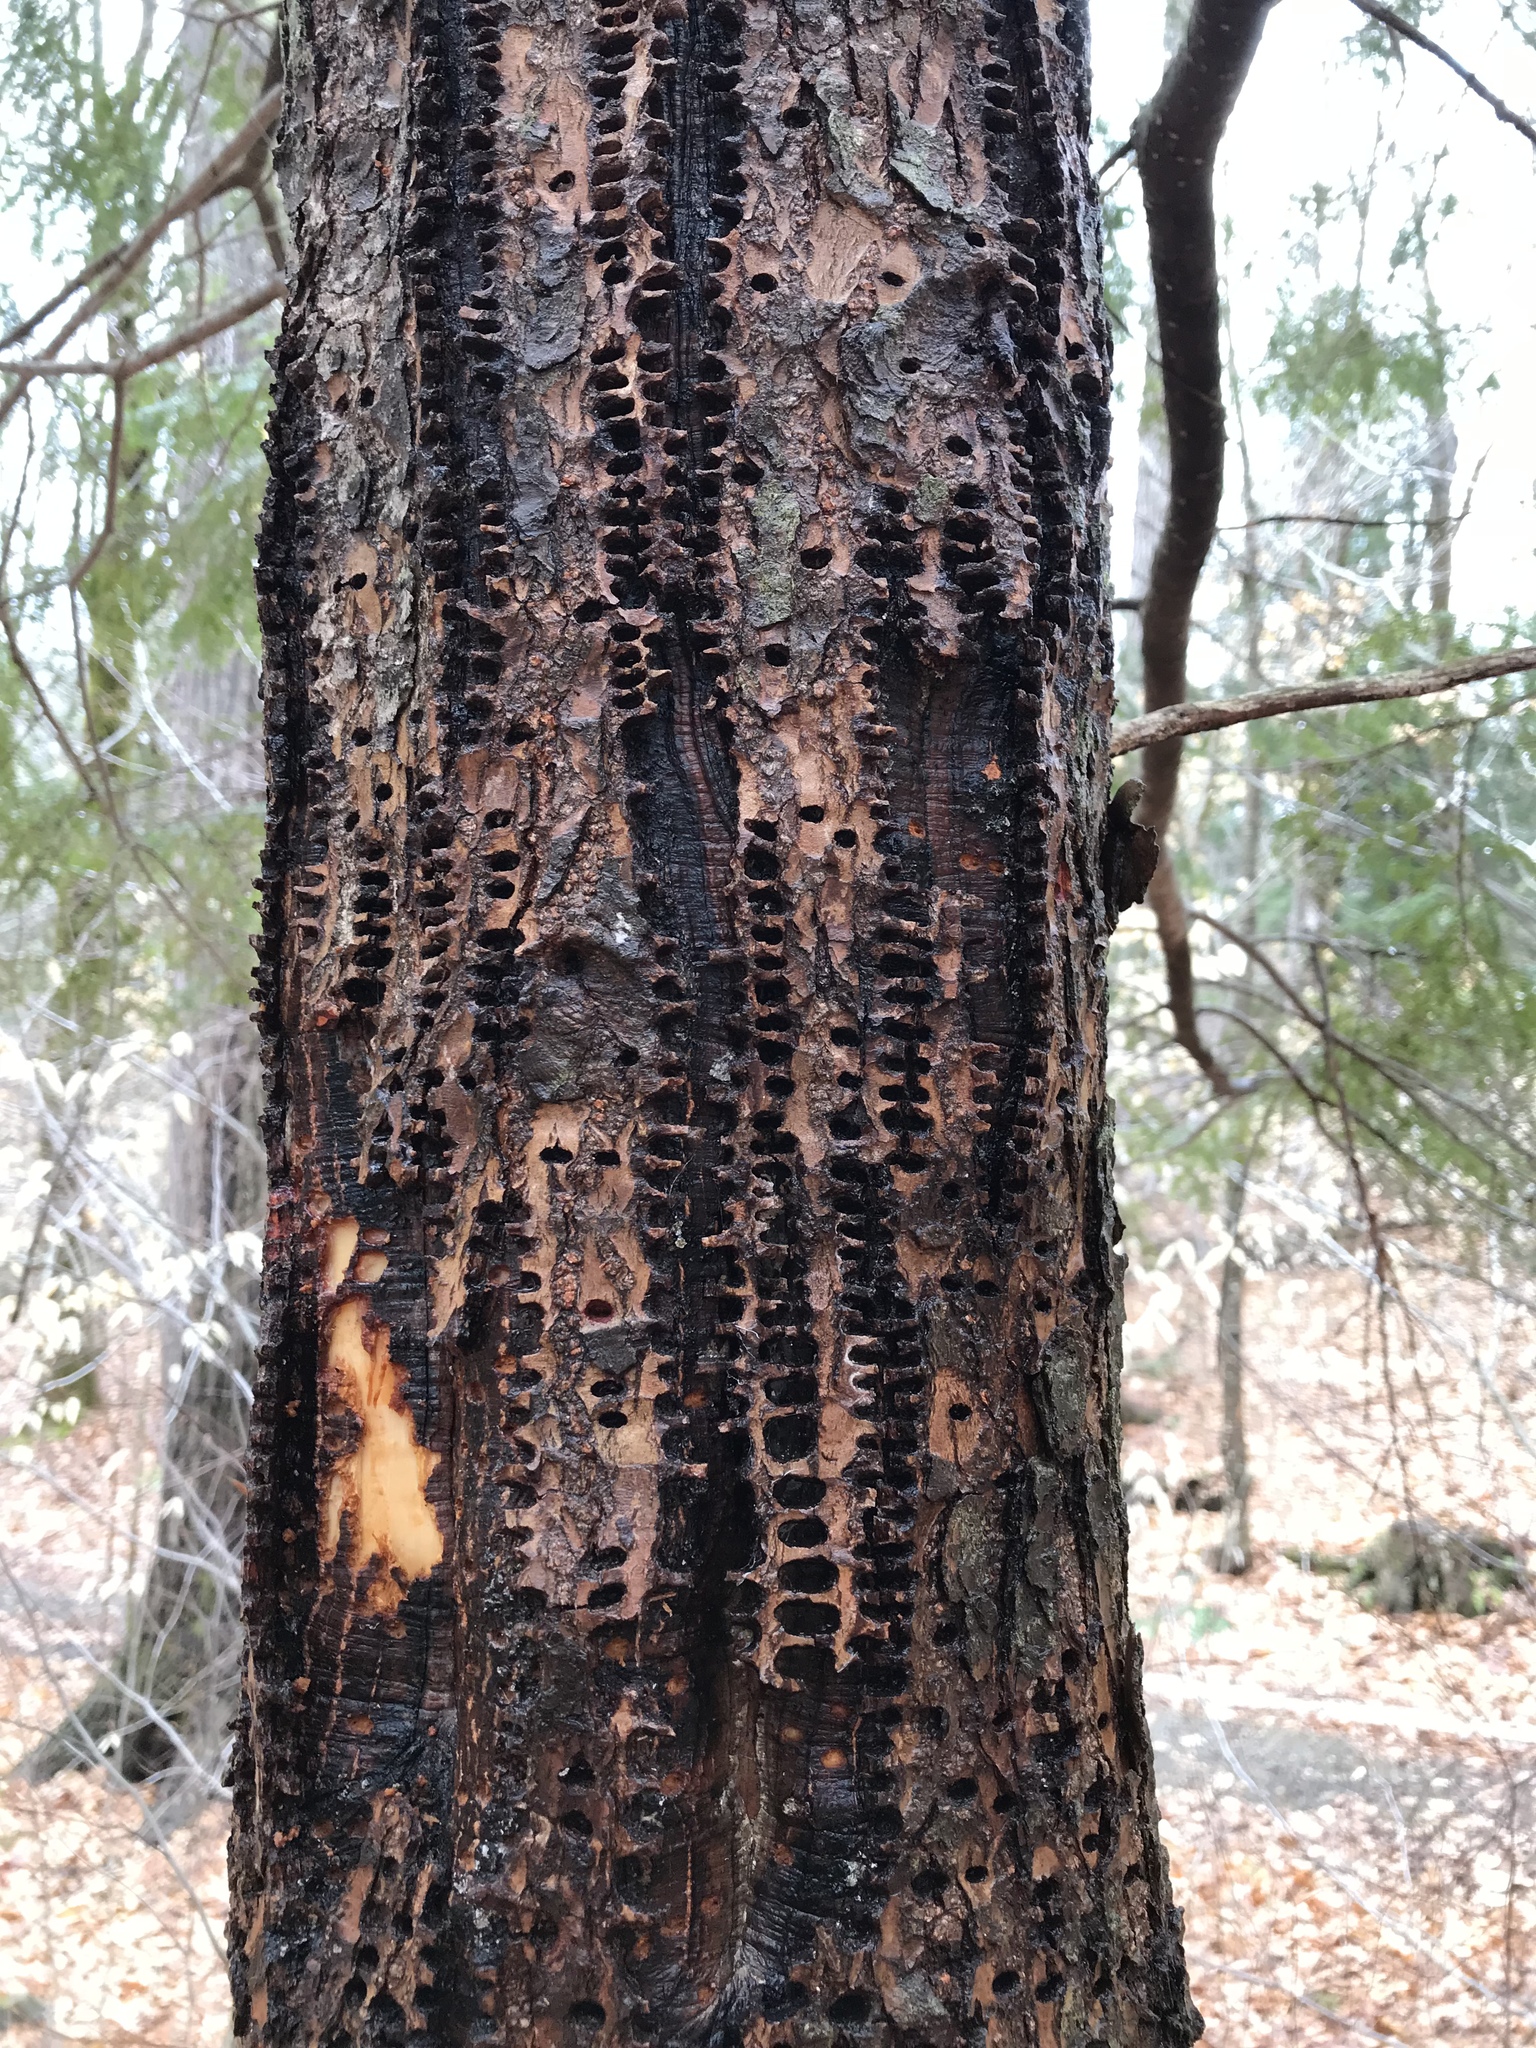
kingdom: Animalia
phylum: Chordata
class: Aves
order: Piciformes
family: Picidae
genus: Sphyrapicus
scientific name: Sphyrapicus varius
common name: Yellow-bellied sapsucker
